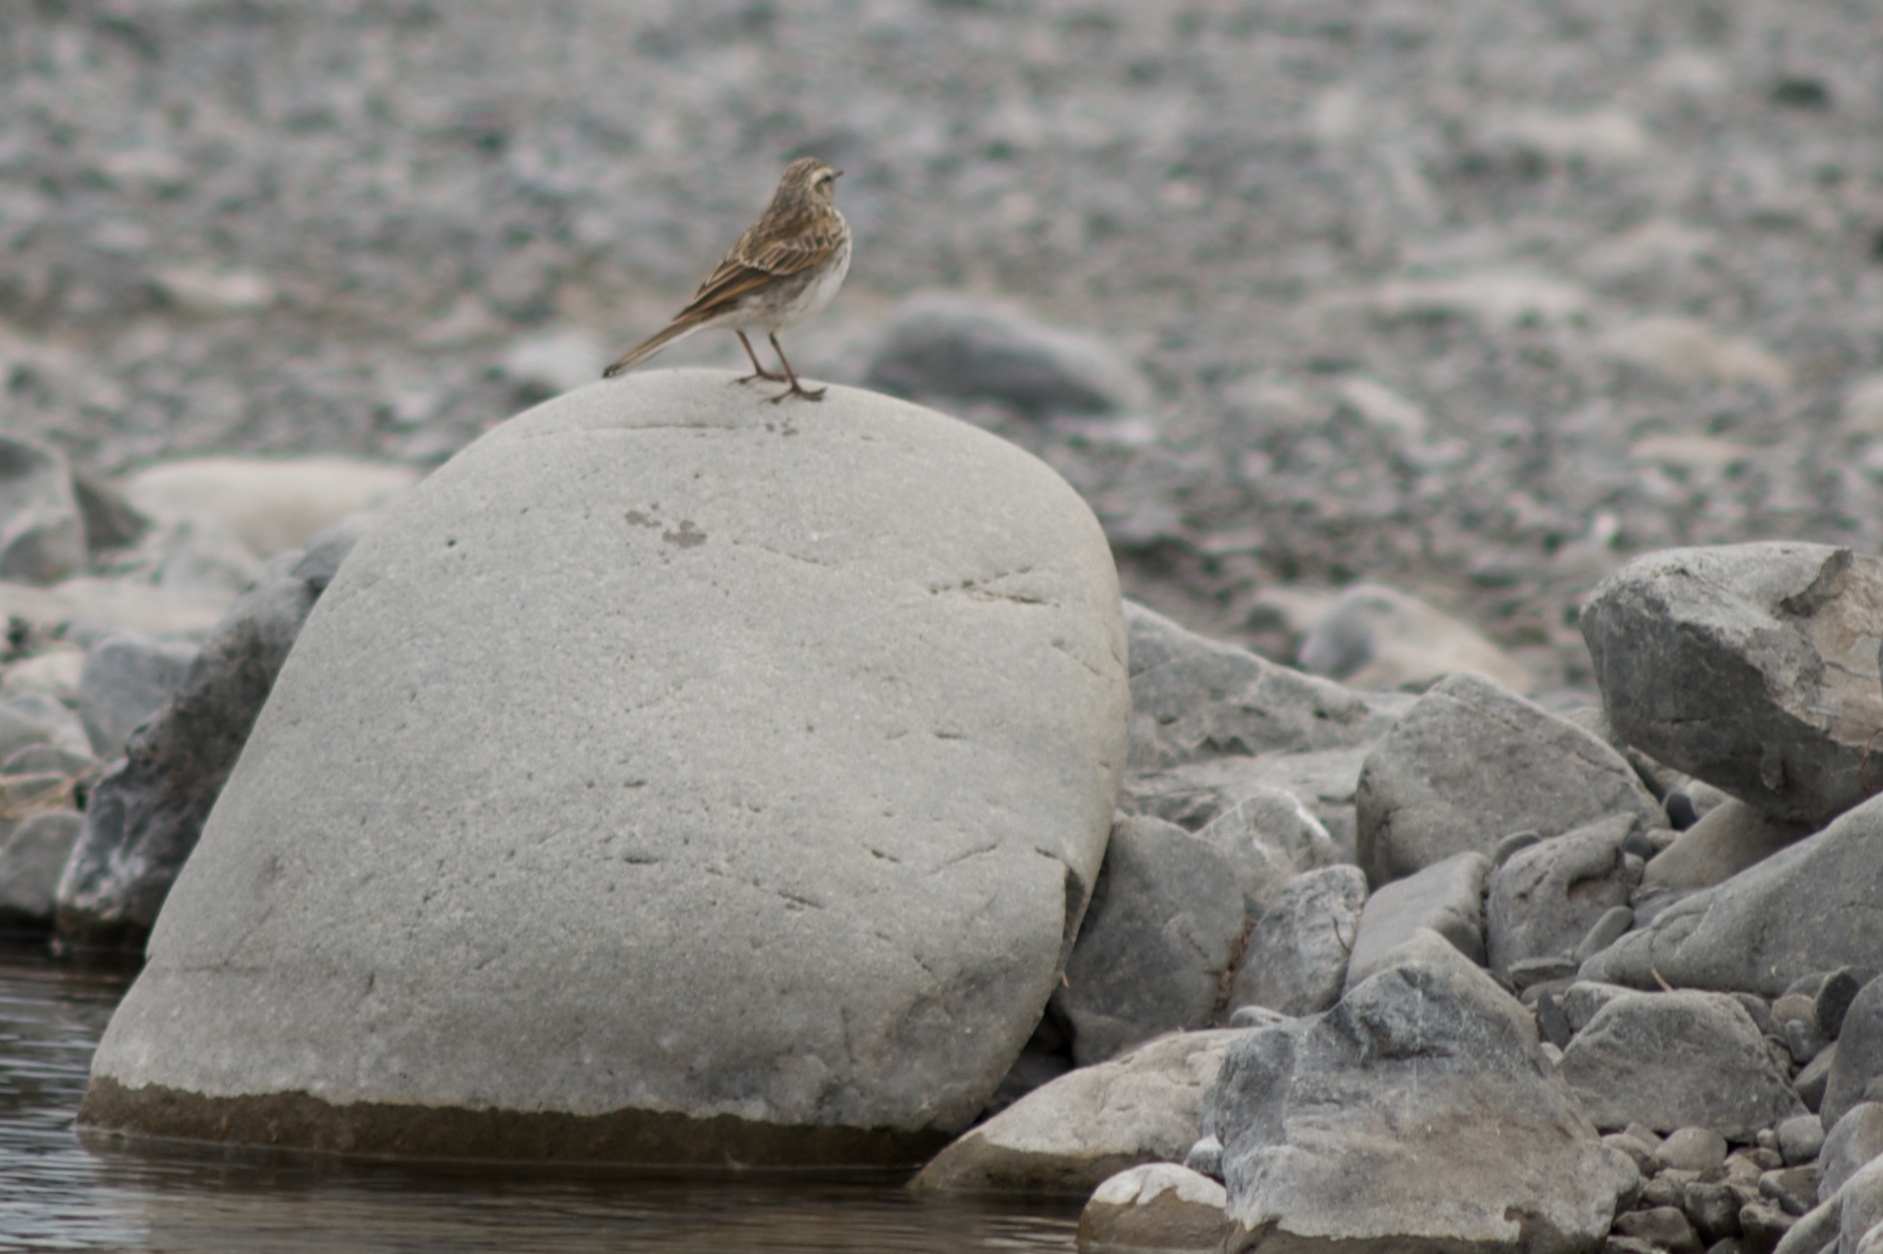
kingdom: Animalia
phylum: Chordata
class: Aves
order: Passeriformes
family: Motacillidae
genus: Anthus
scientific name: Anthus novaeseelandiae
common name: New zealand pipit
